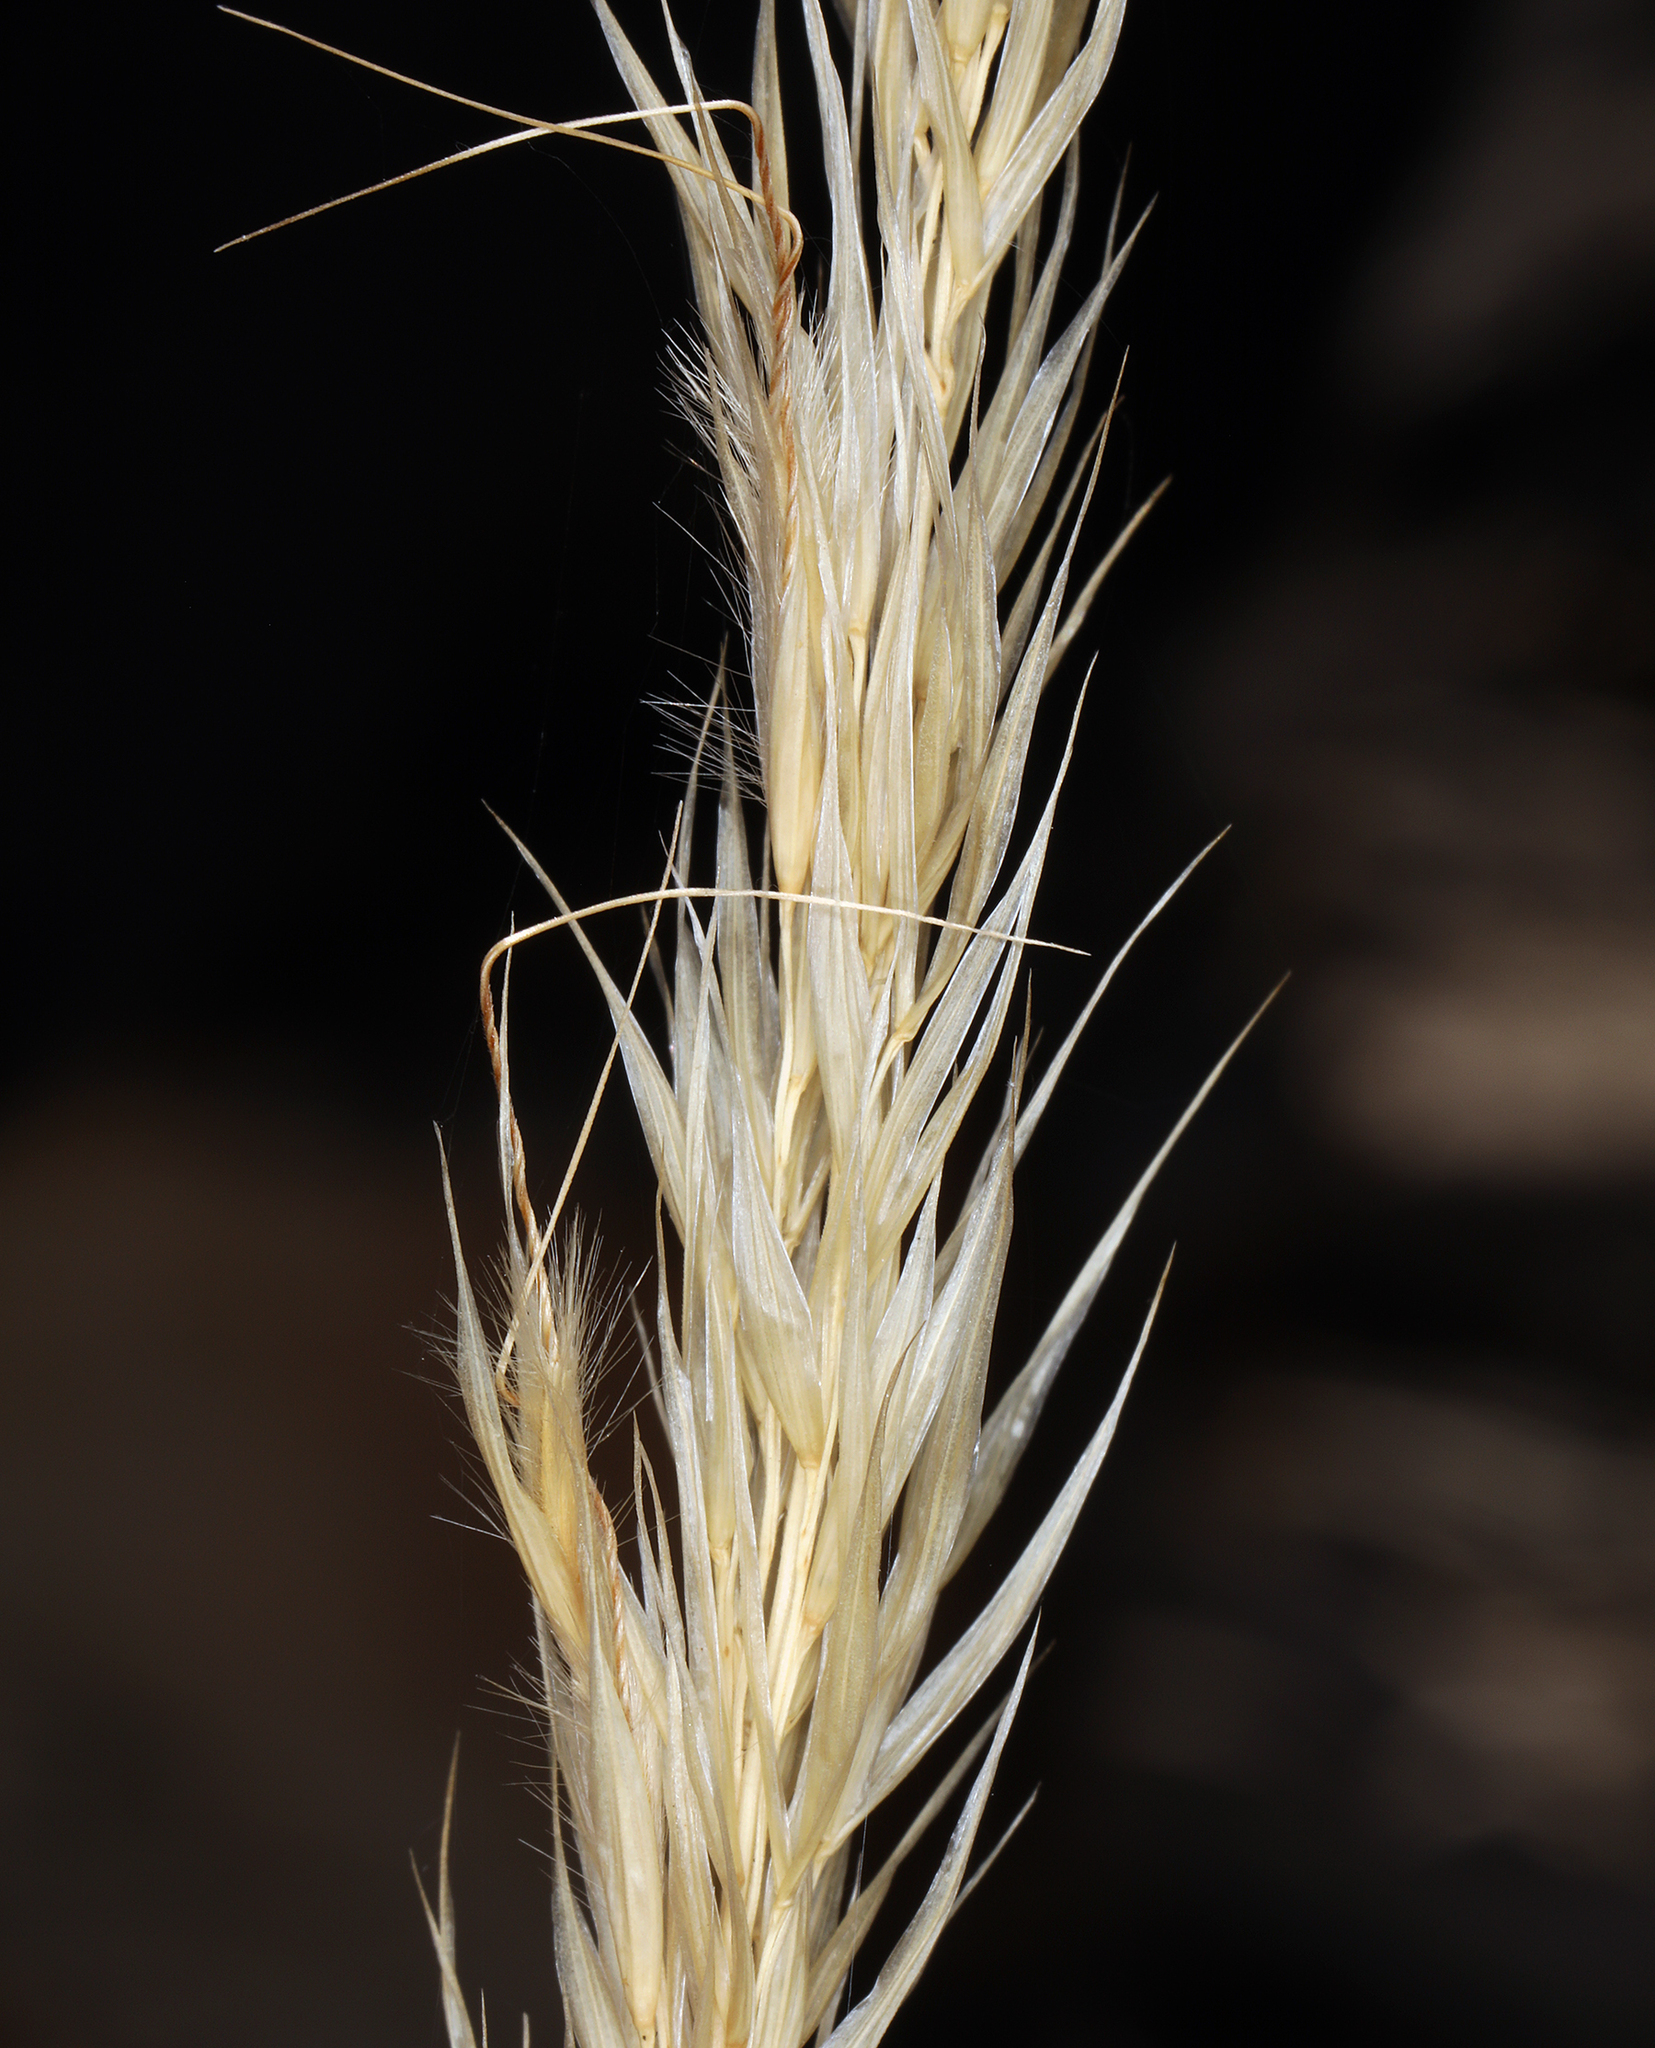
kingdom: Plantae
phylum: Tracheophyta
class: Liliopsida
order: Poales
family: Poaceae
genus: Eriocoma
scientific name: Eriocoma parishii
